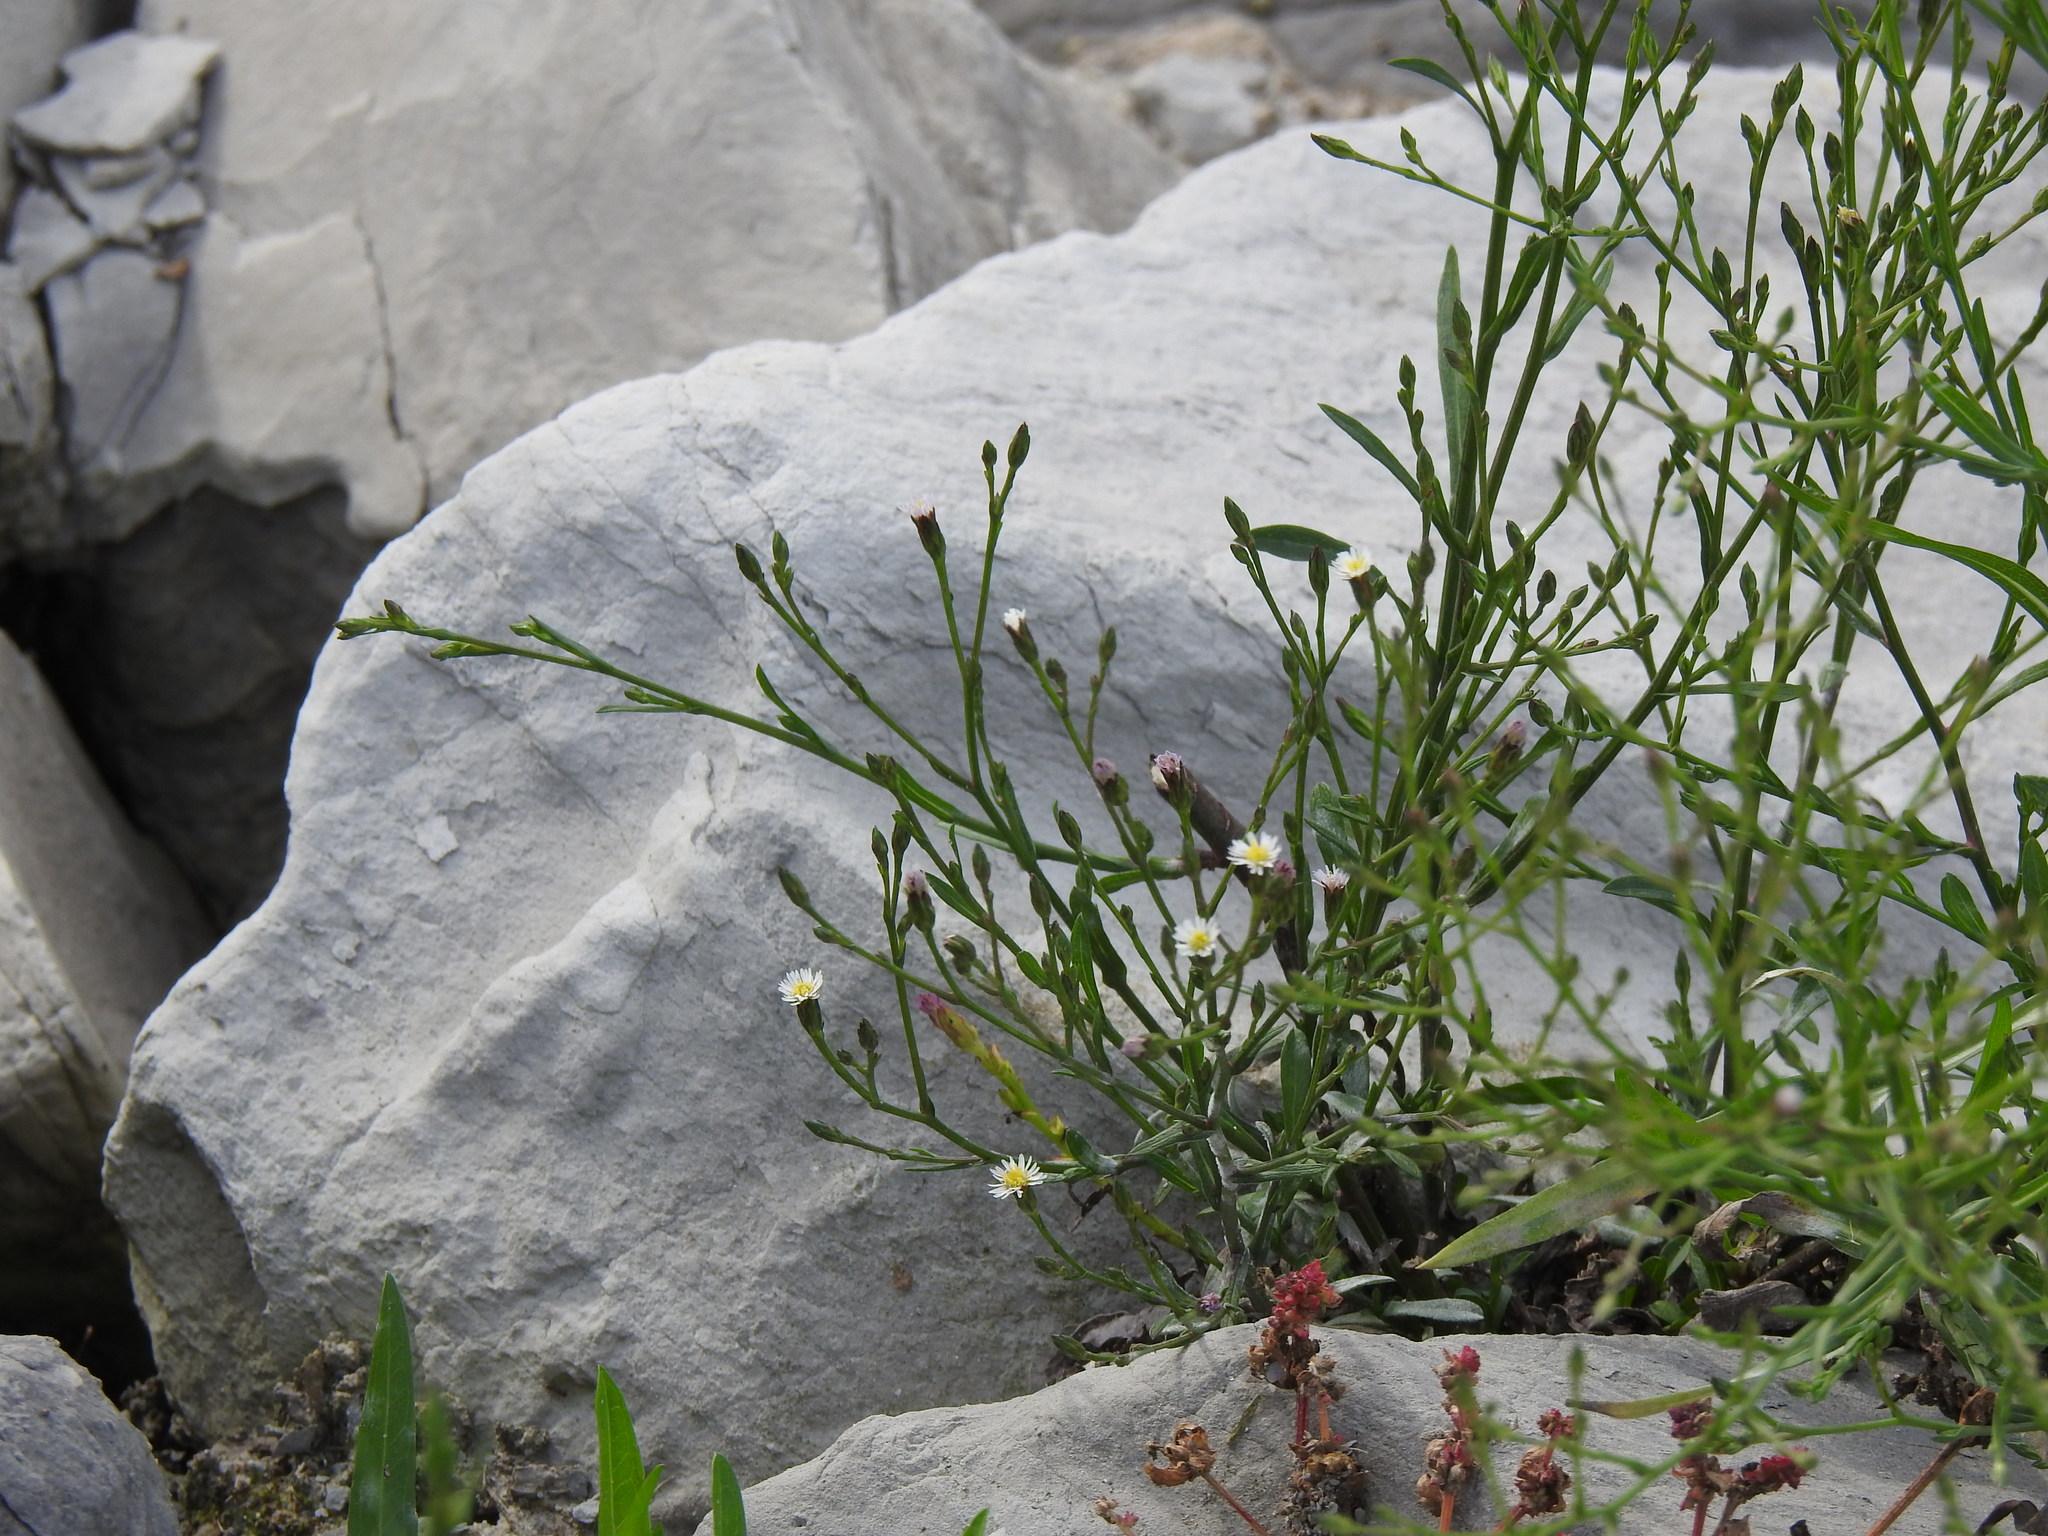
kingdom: Plantae
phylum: Tracheophyta
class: Magnoliopsida
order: Asterales
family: Asteraceae
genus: Symphyotrichum
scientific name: Symphyotrichum squamatum
